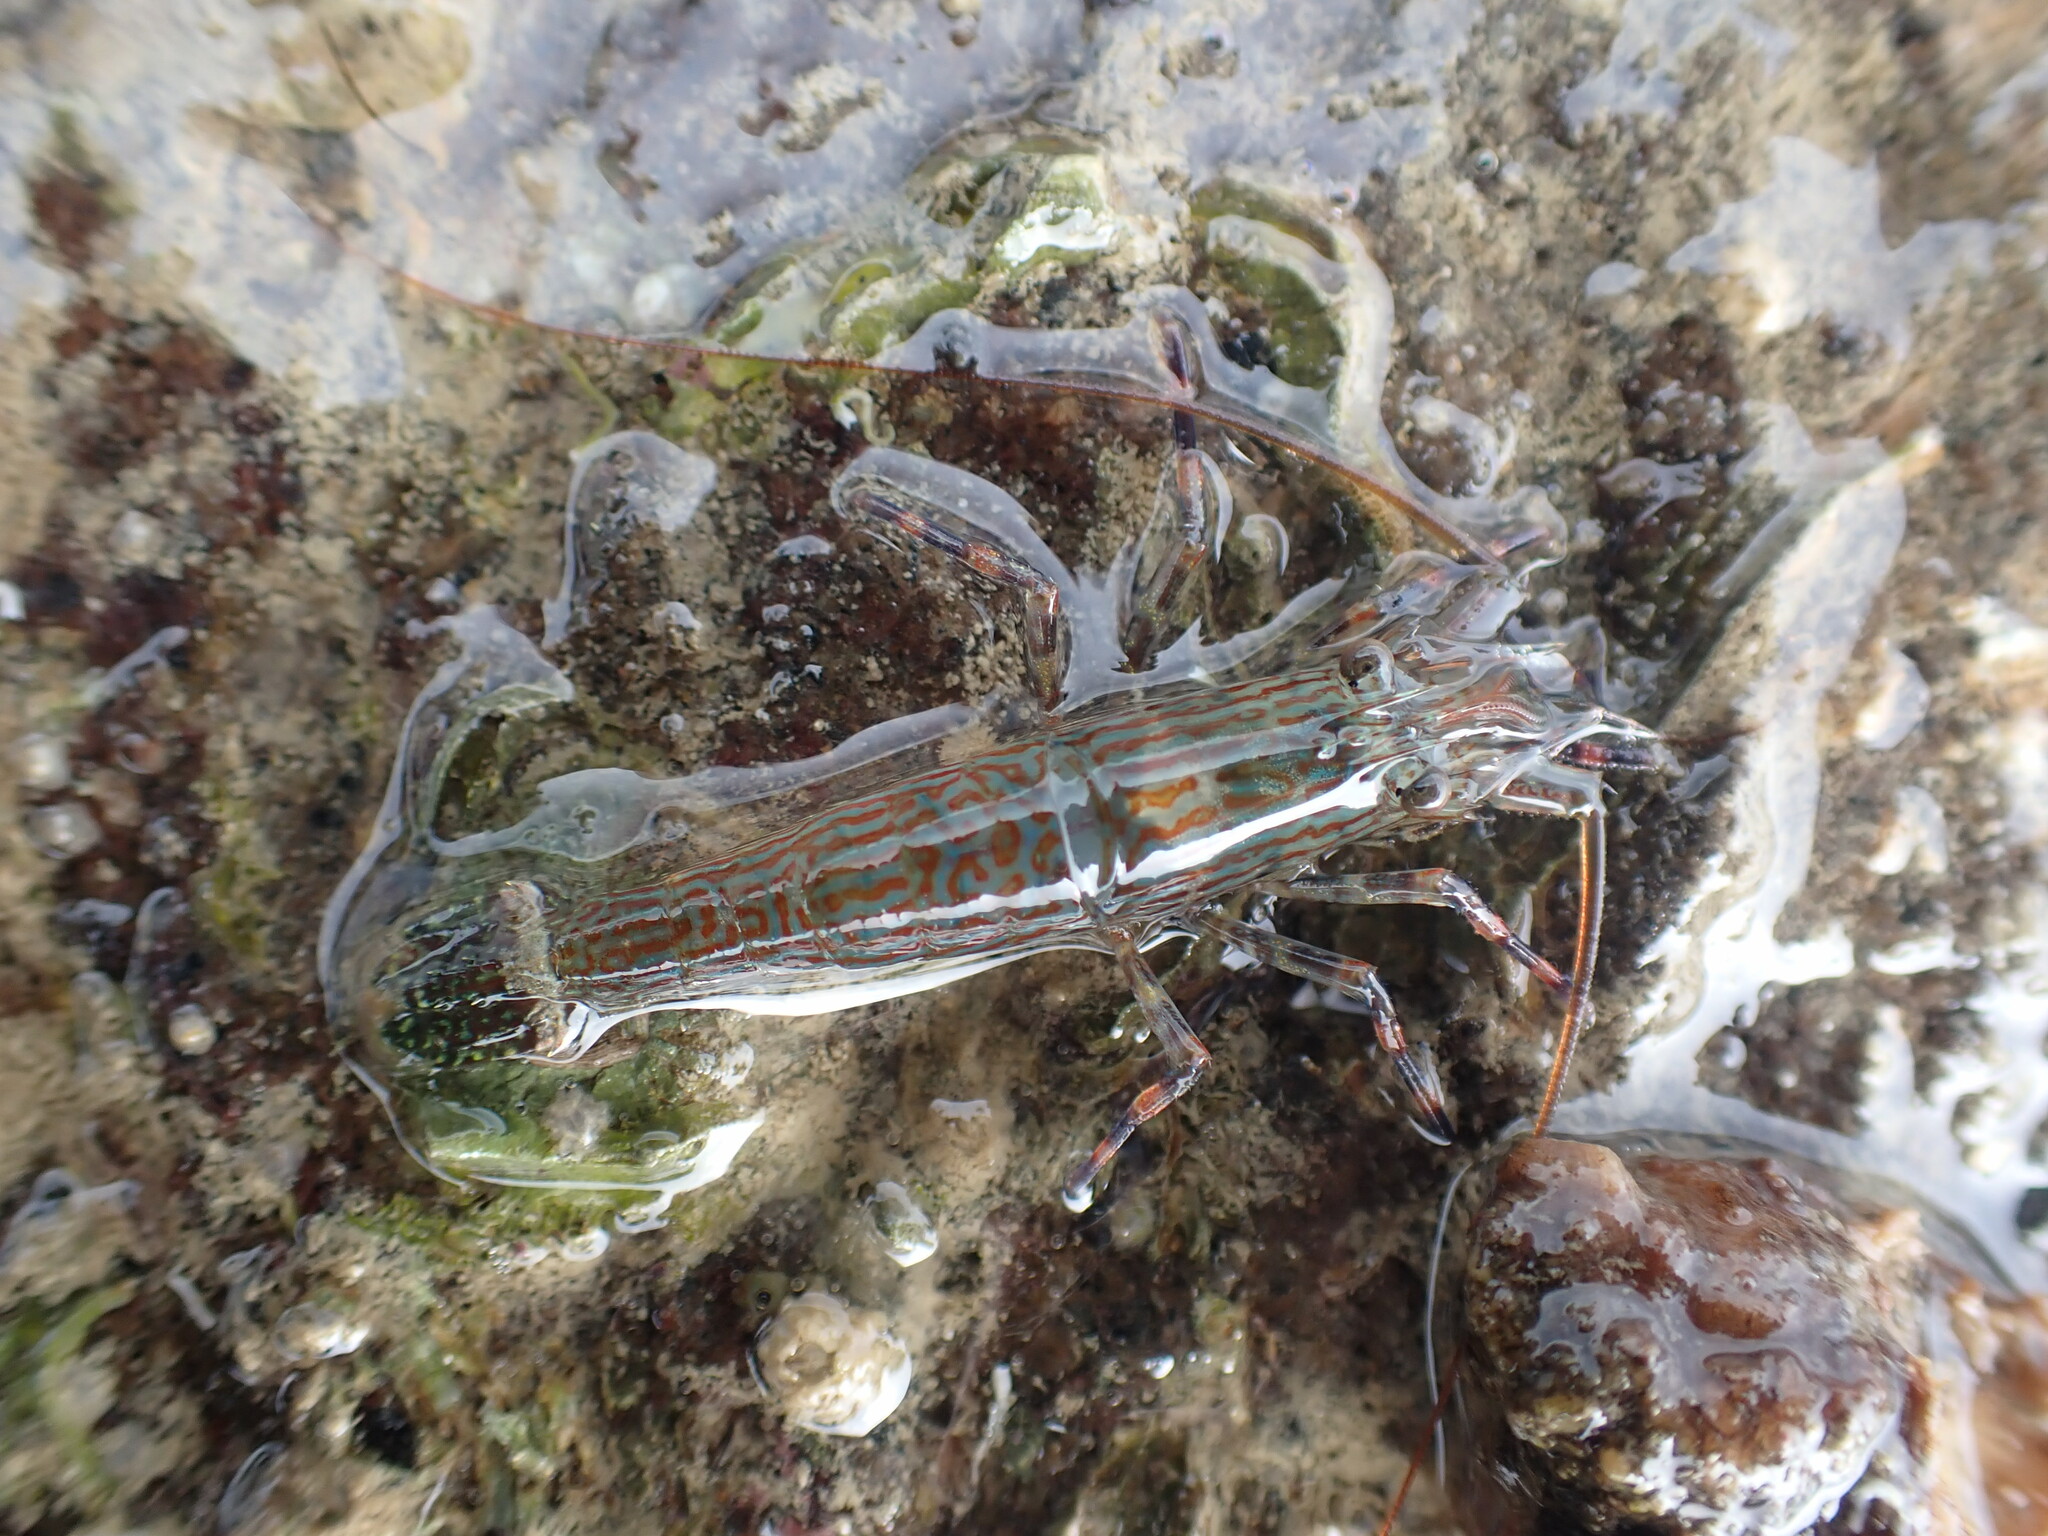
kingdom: Animalia
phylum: Arthropoda
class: Malacostraca
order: Decapoda
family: Hippolytidae
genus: Alope
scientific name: Alope spinifrons
